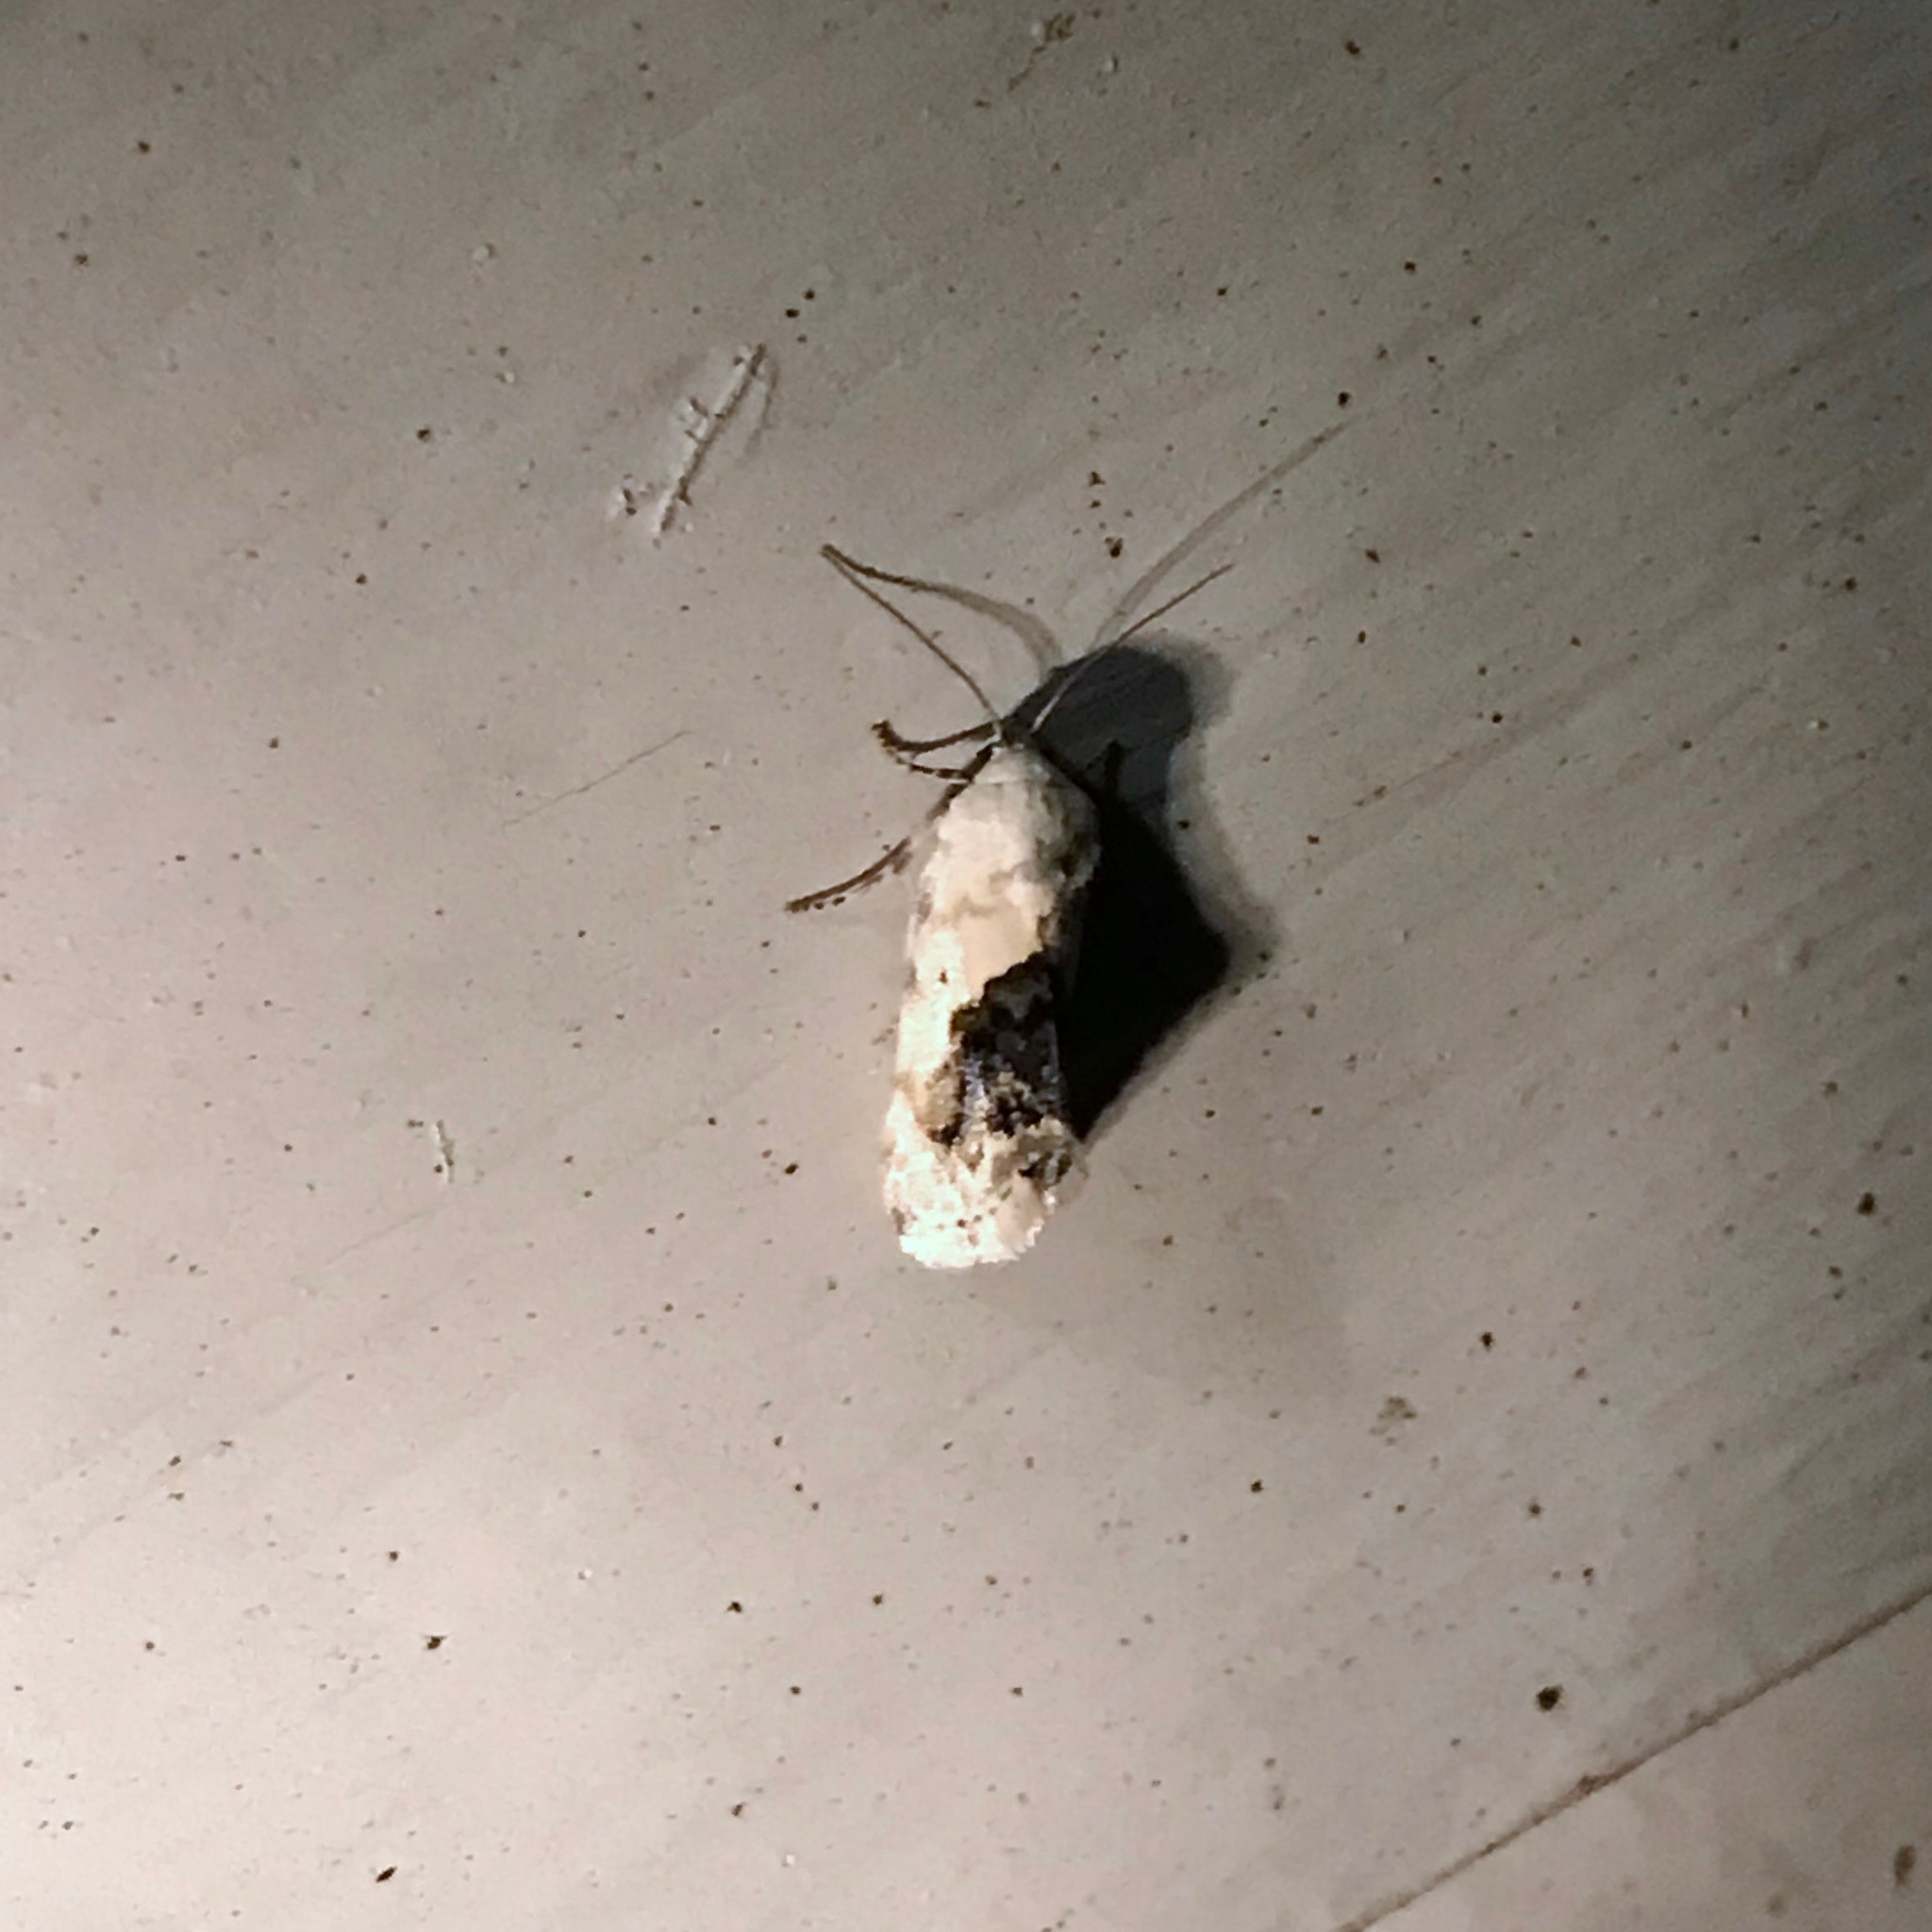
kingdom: Animalia
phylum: Arthropoda
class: Insecta
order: Lepidoptera
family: Noctuidae
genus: Acontia
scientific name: Acontia erastrioides
